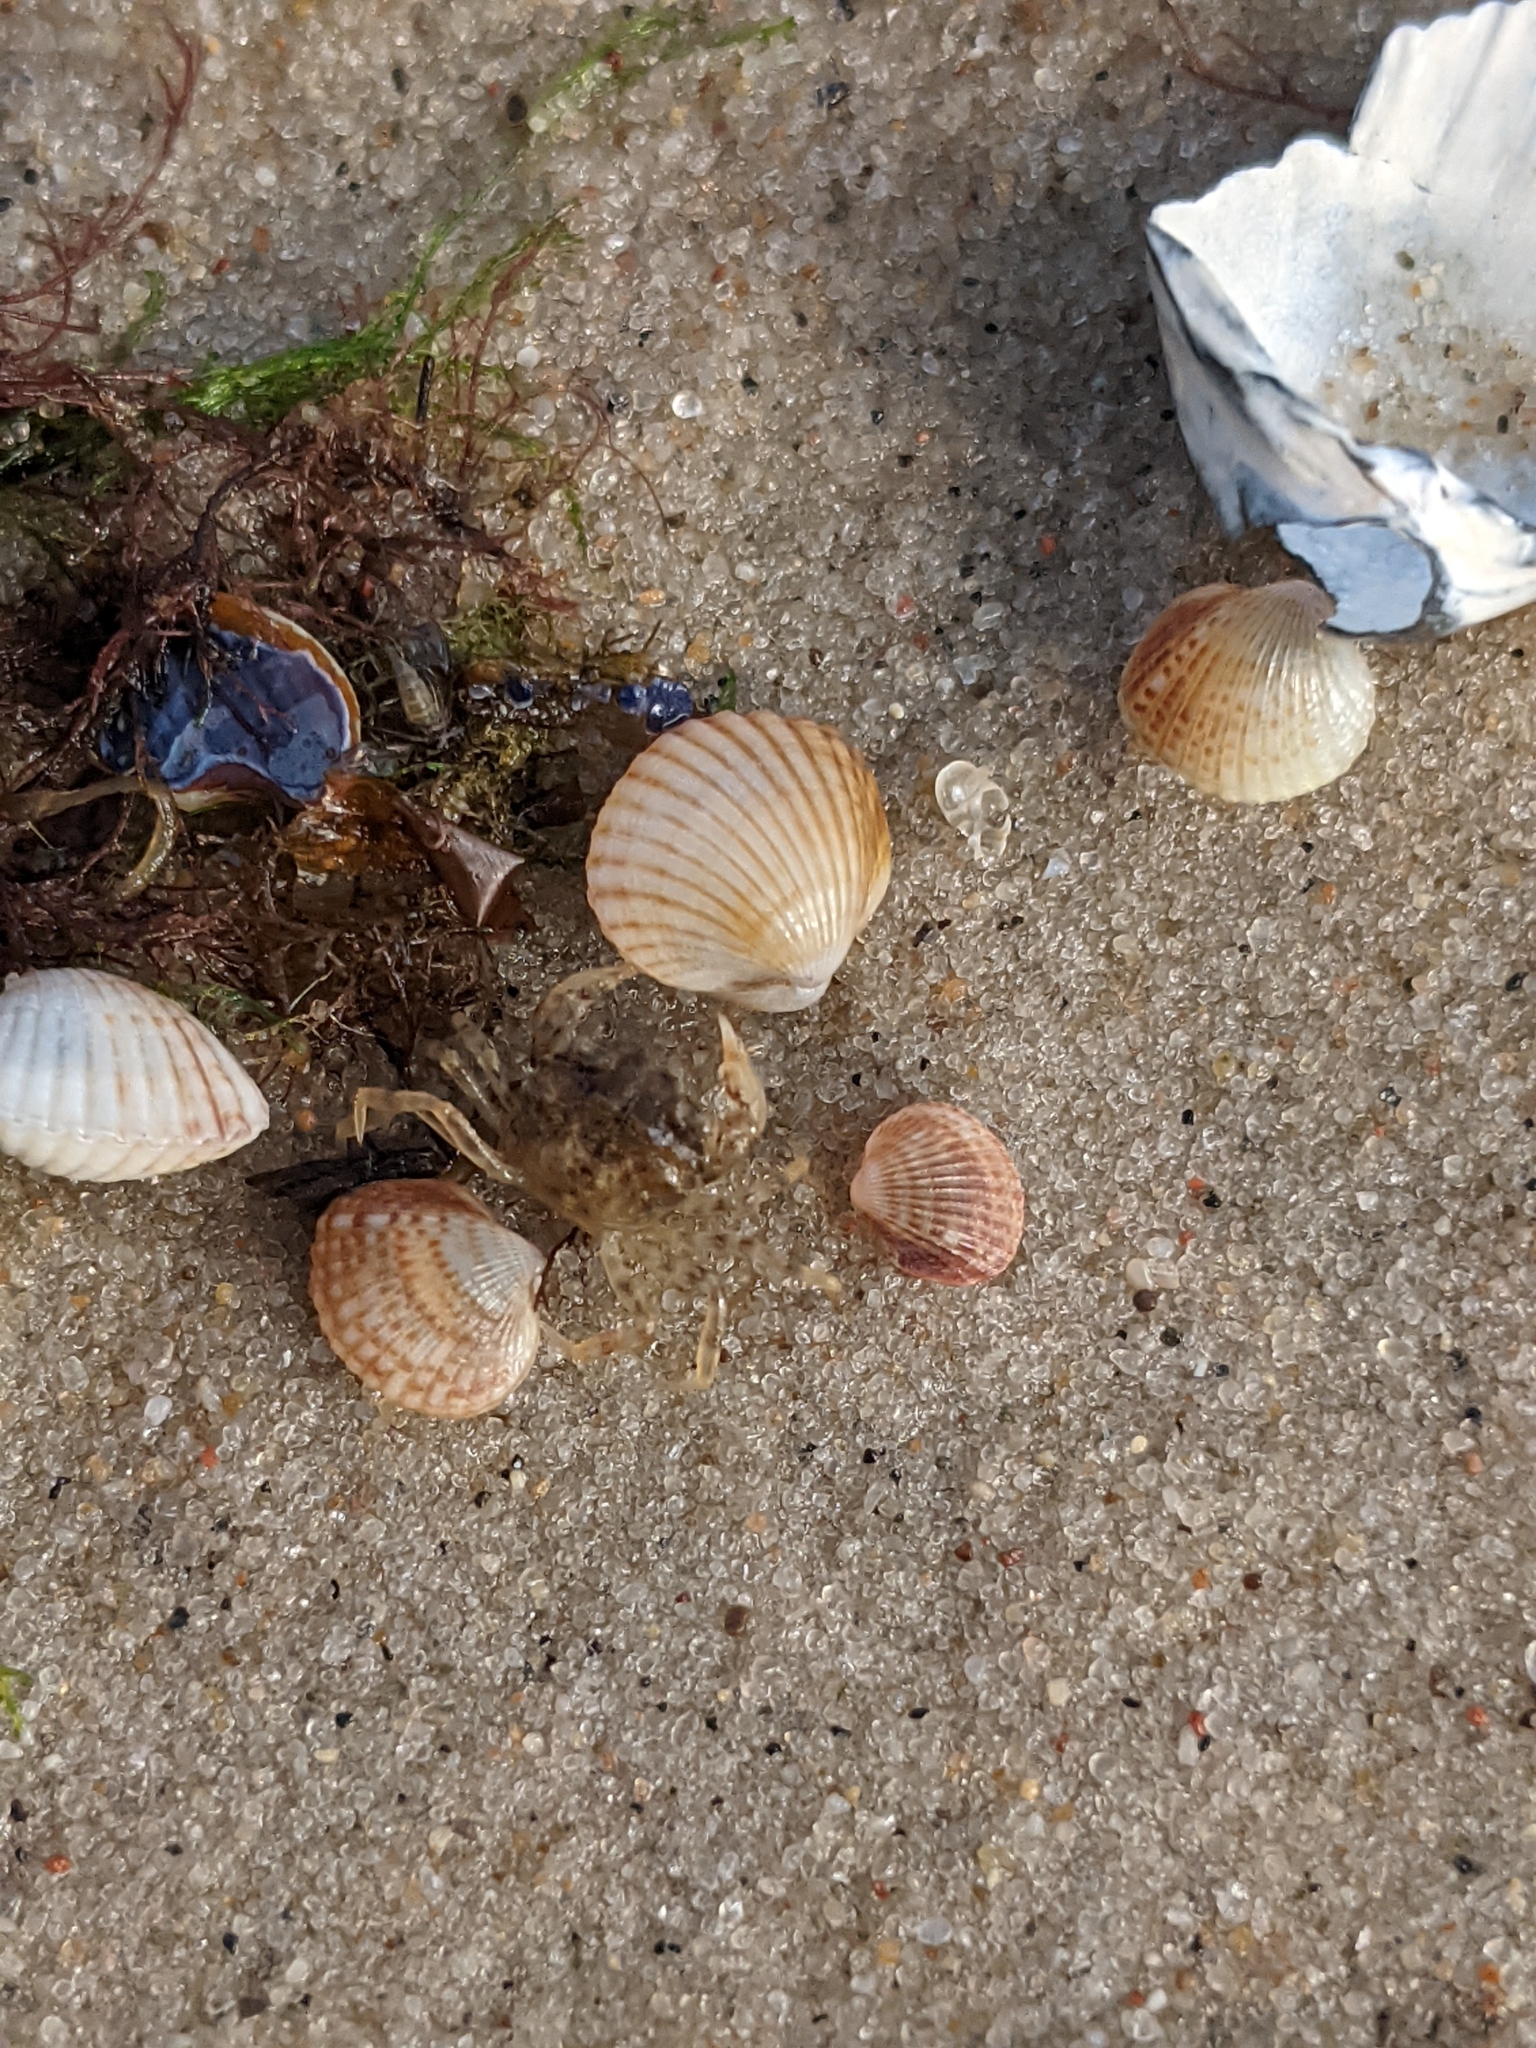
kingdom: Animalia
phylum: Mollusca
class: Bivalvia
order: Cardiida
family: Cardiidae
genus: Cerastoderma
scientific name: Cerastoderma glaucum
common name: Lagoon cockle
